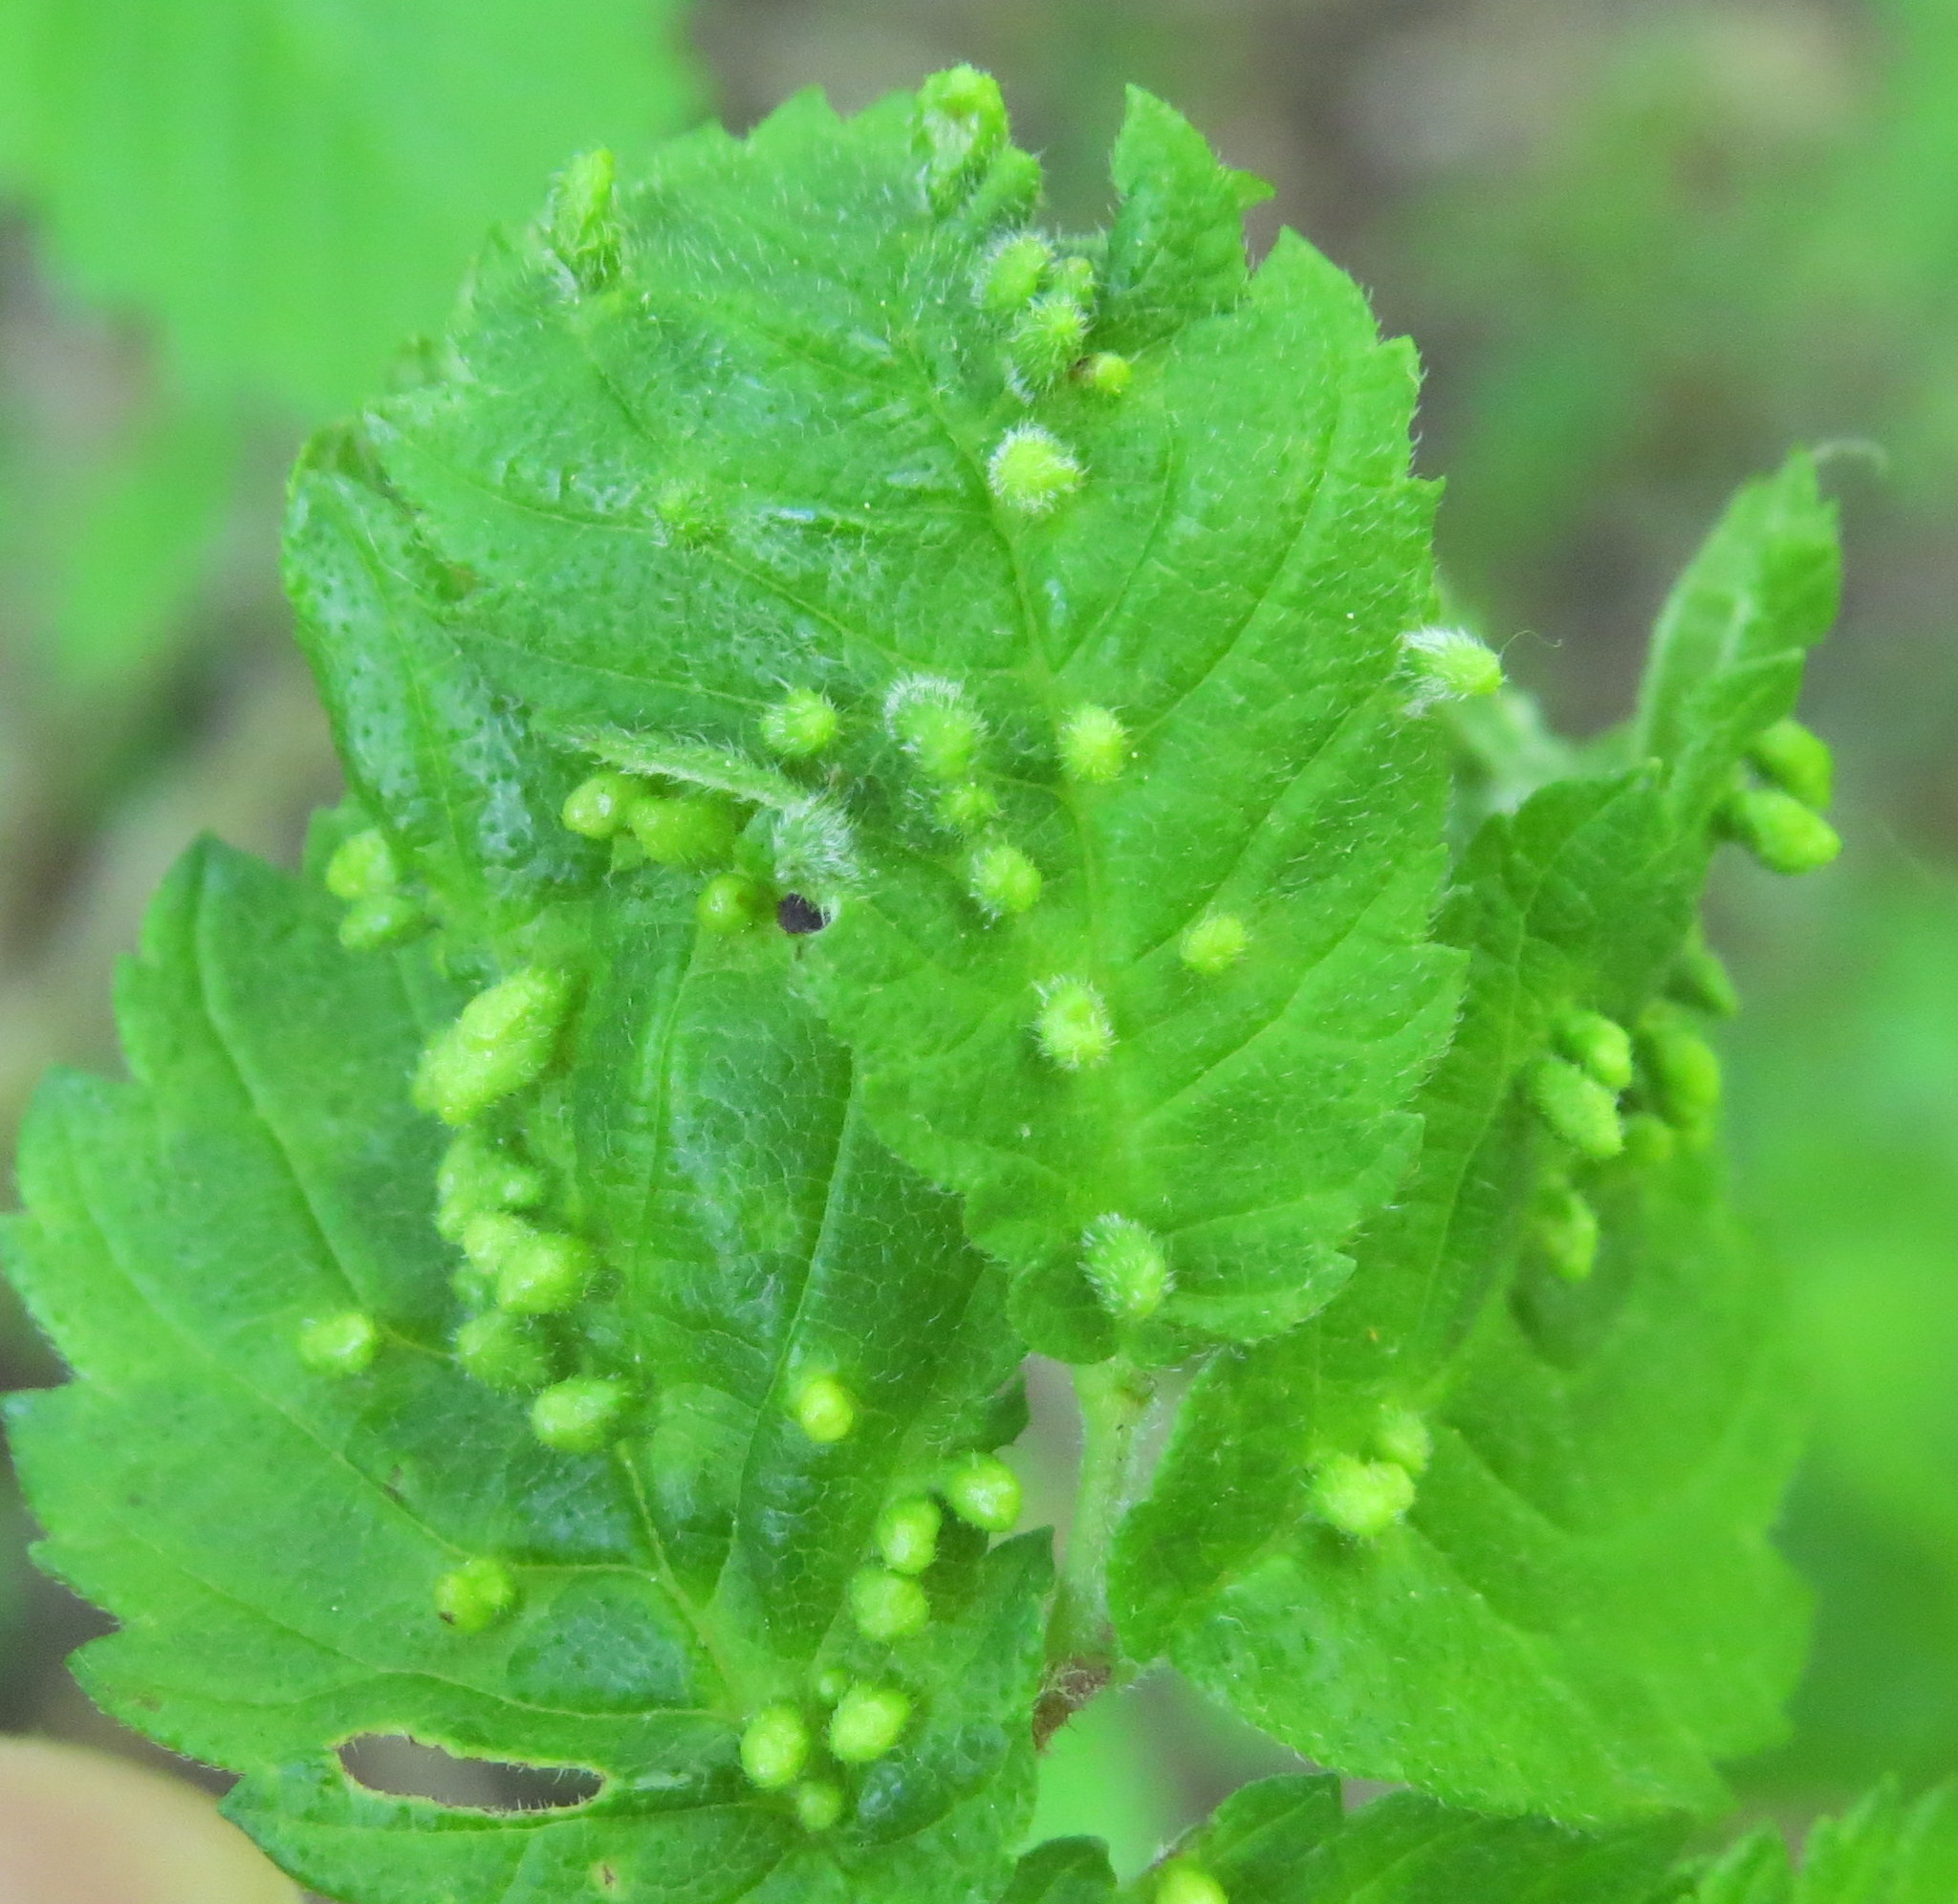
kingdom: Animalia
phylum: Arthropoda
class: Arachnida
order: Trombidiformes
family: Eriophyidae
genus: Aceria
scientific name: Aceria
